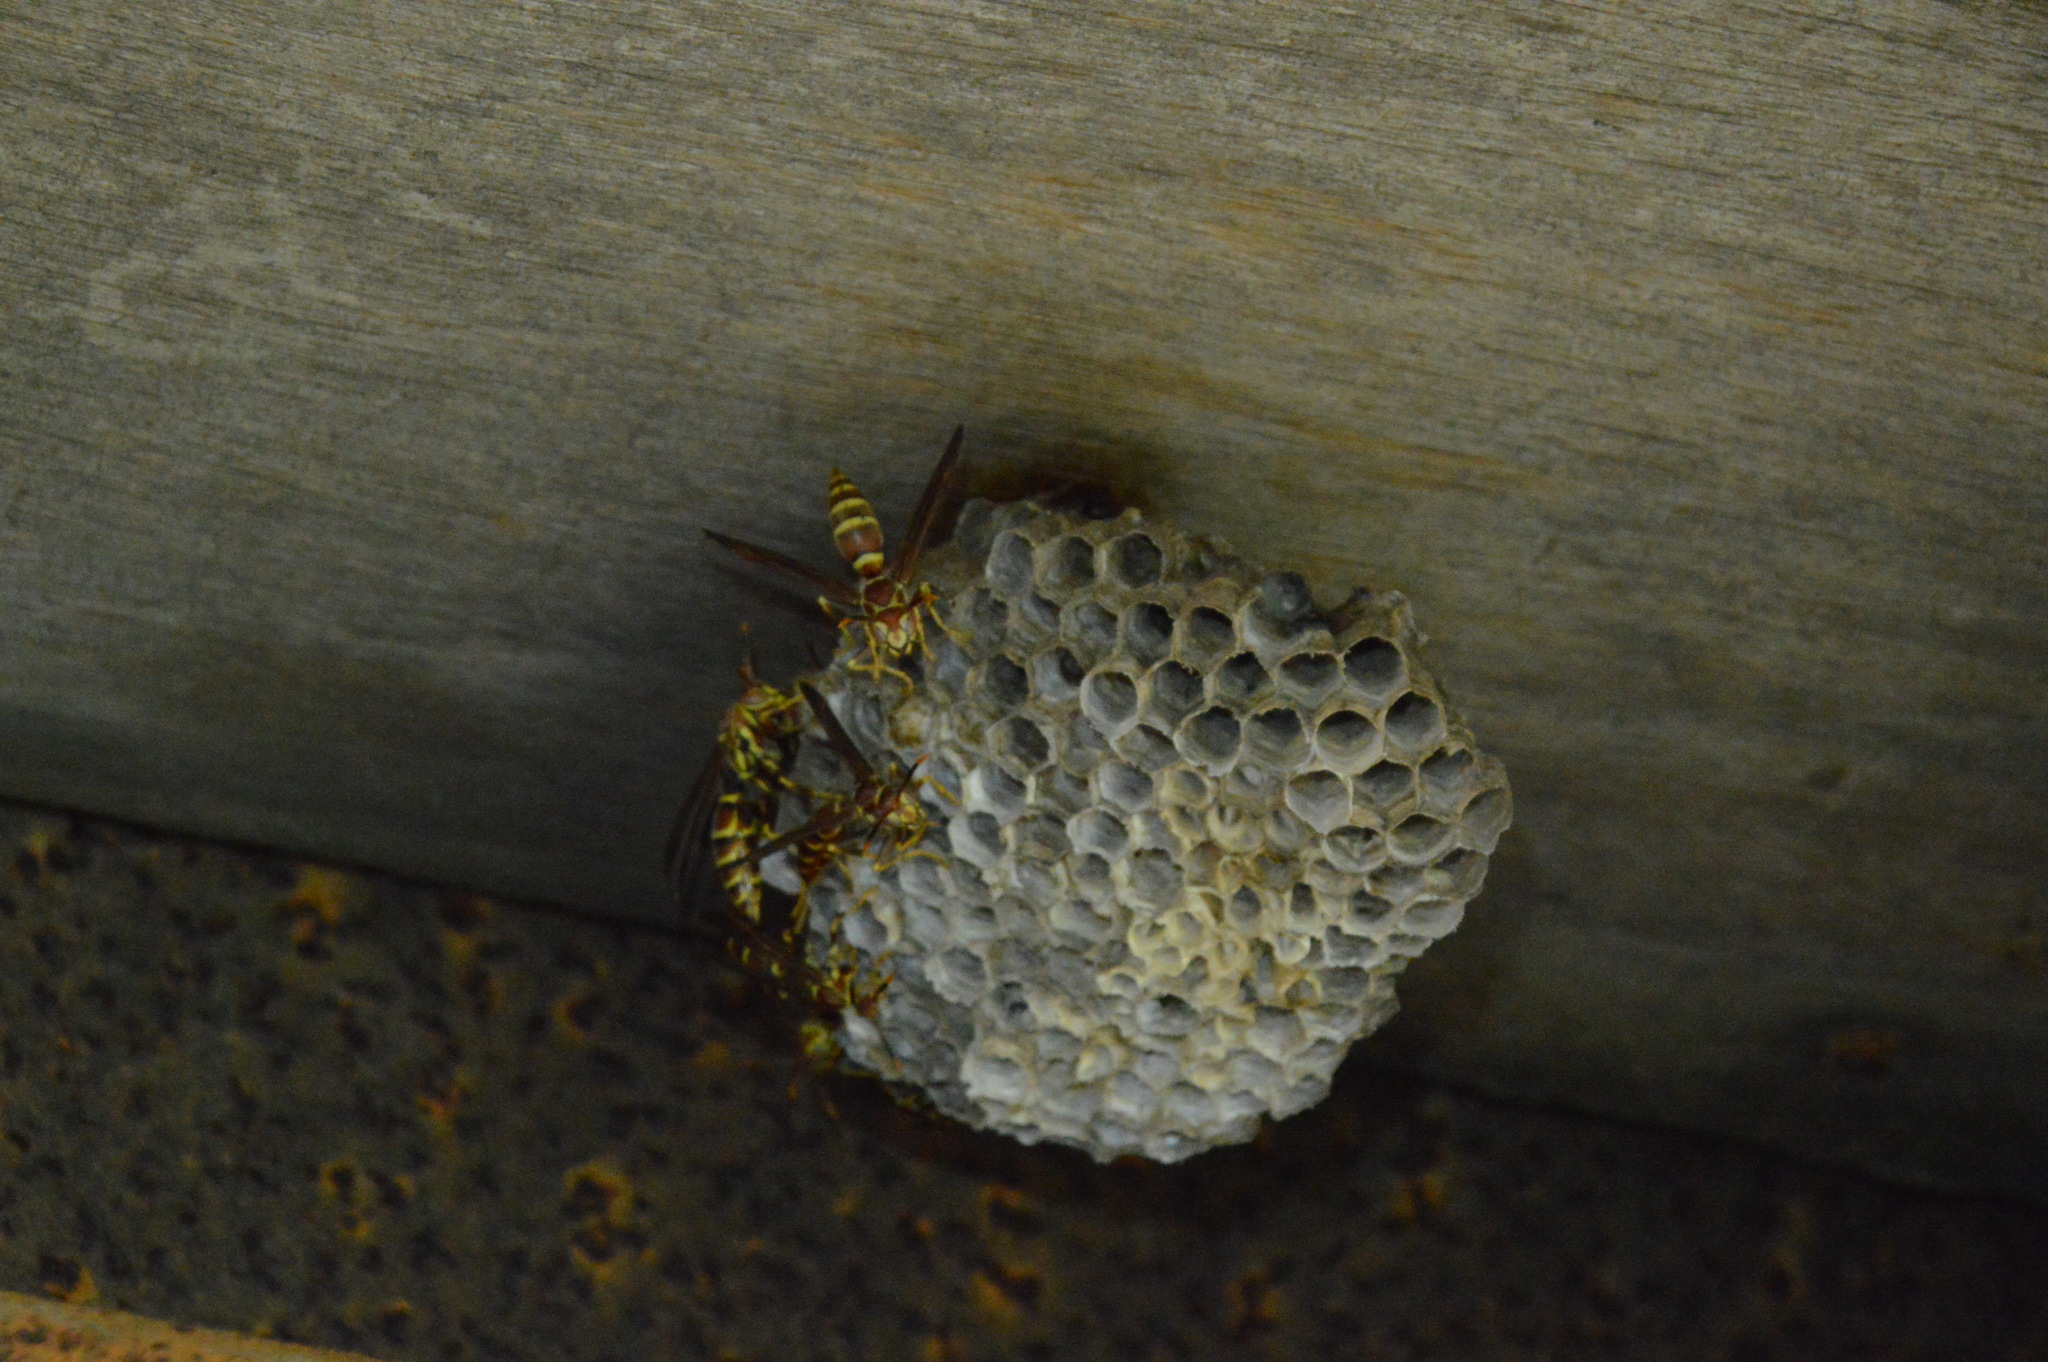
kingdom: Animalia
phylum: Arthropoda
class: Insecta
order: Hymenoptera
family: Eumenidae
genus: Polistes
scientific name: Polistes exclamans
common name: Paper wasp
